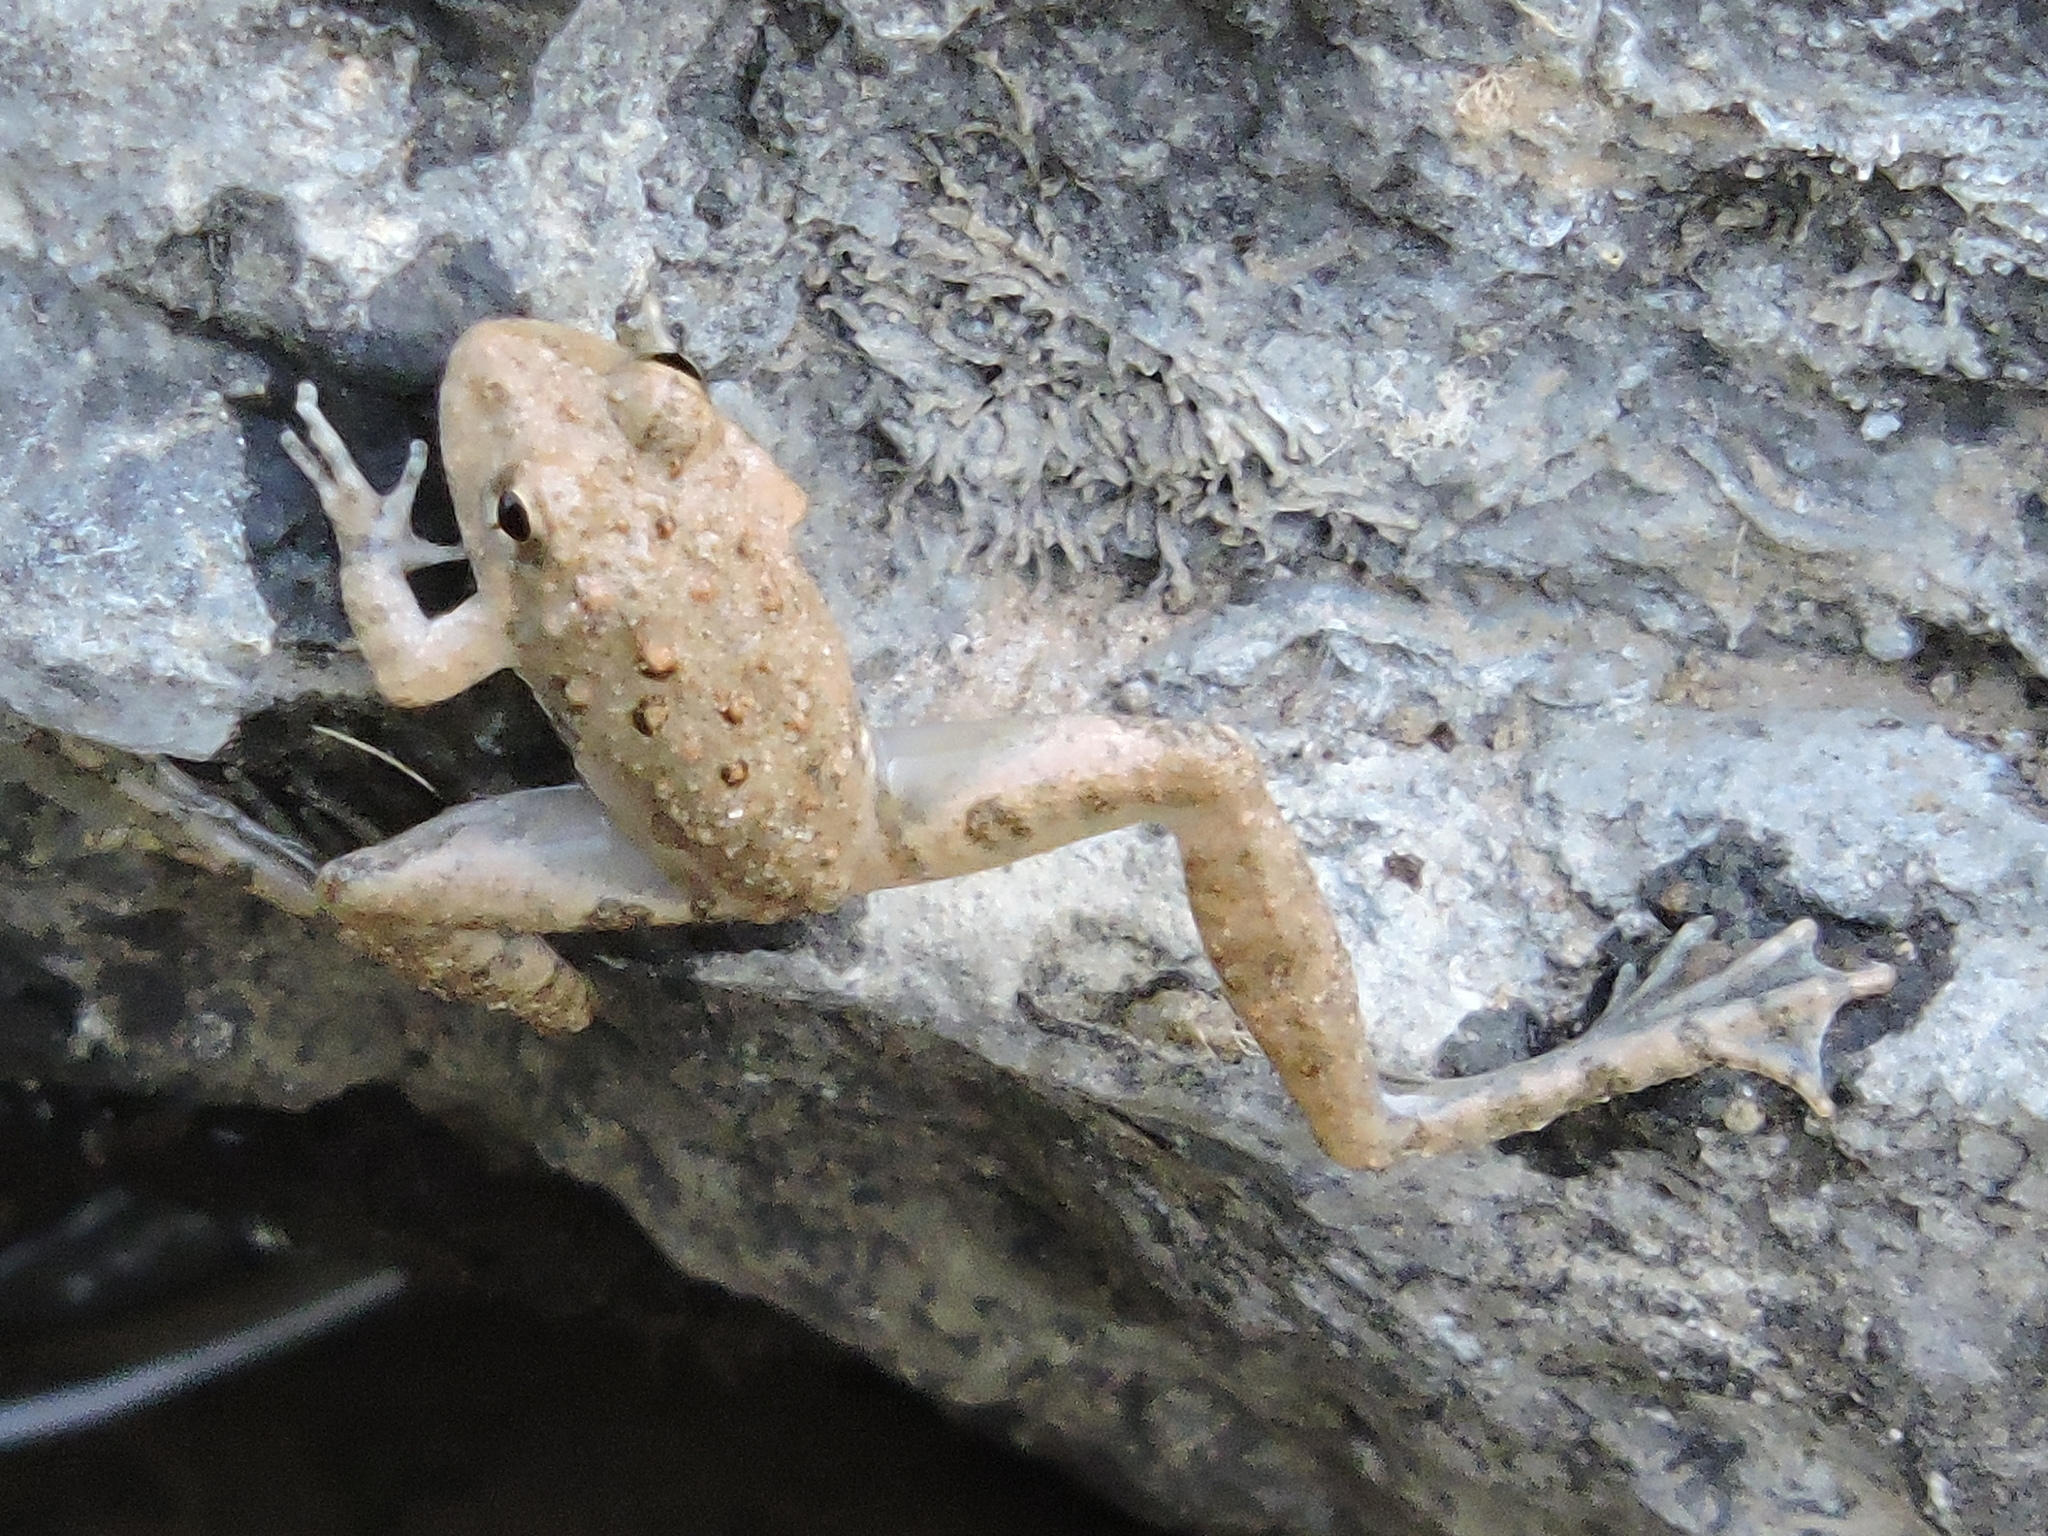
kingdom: Animalia
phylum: Chordata
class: Amphibia
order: Anura
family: Hylidae
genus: Acris
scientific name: Acris blanchardi
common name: Blanchard's cricket frog
